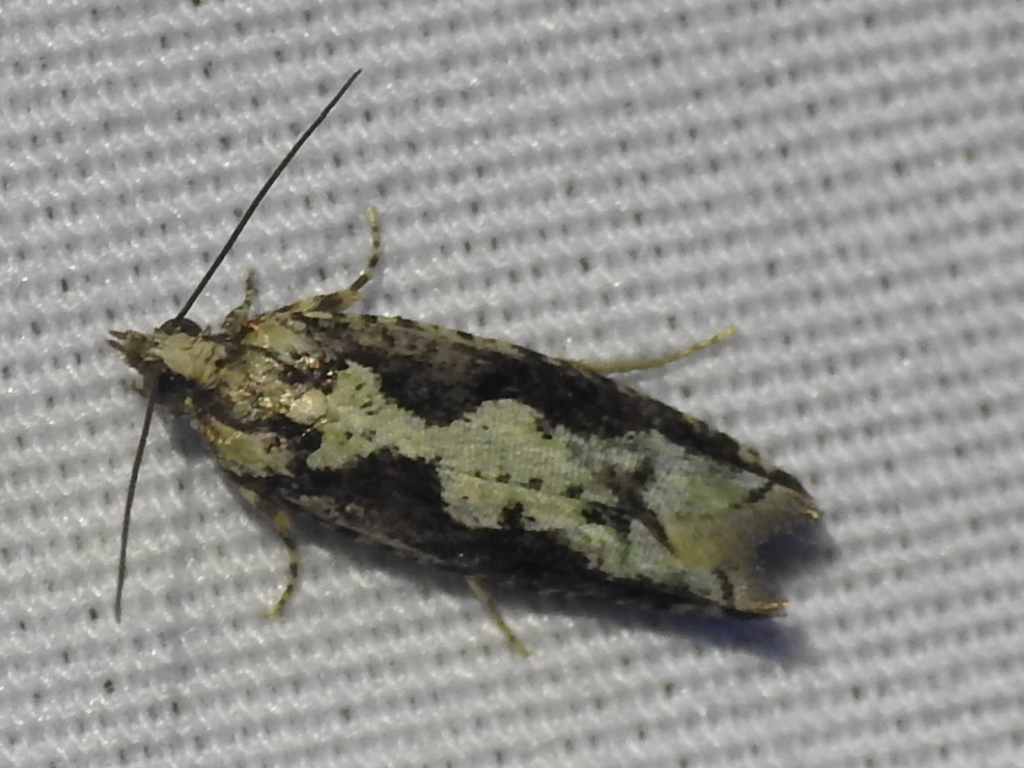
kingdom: Animalia
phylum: Arthropoda
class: Insecta
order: Lepidoptera
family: Tortricidae
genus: Chimoptesis
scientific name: Chimoptesis pennsylvaniana
